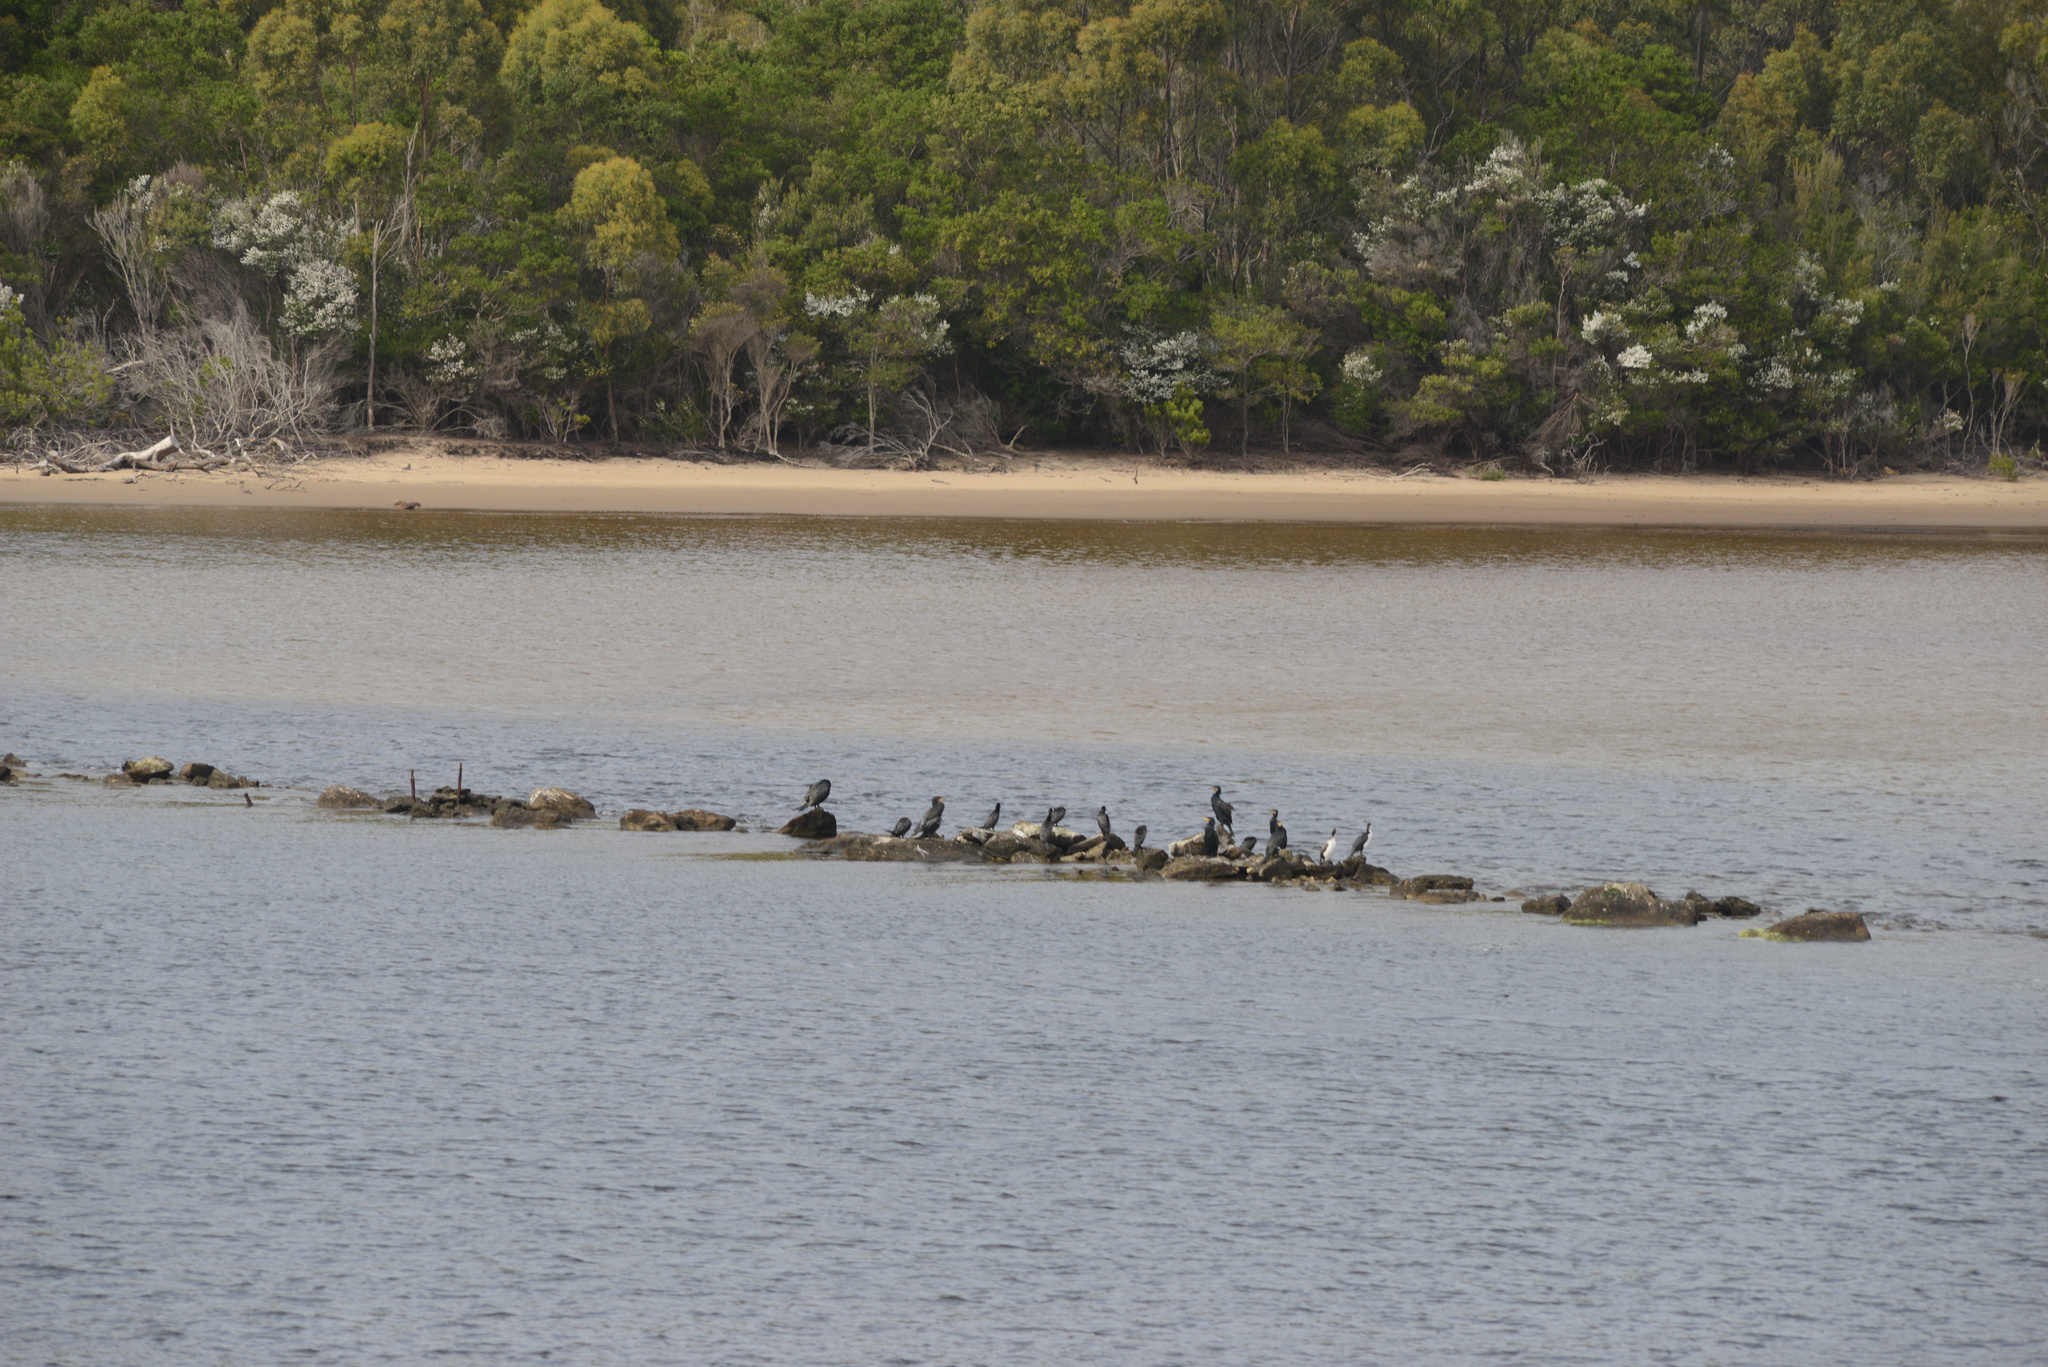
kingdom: Animalia
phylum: Chordata
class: Aves
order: Suliformes
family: Phalacrocoracidae
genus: Phalacrocorax
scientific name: Phalacrocorax sulcirostris
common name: Little black cormorant
